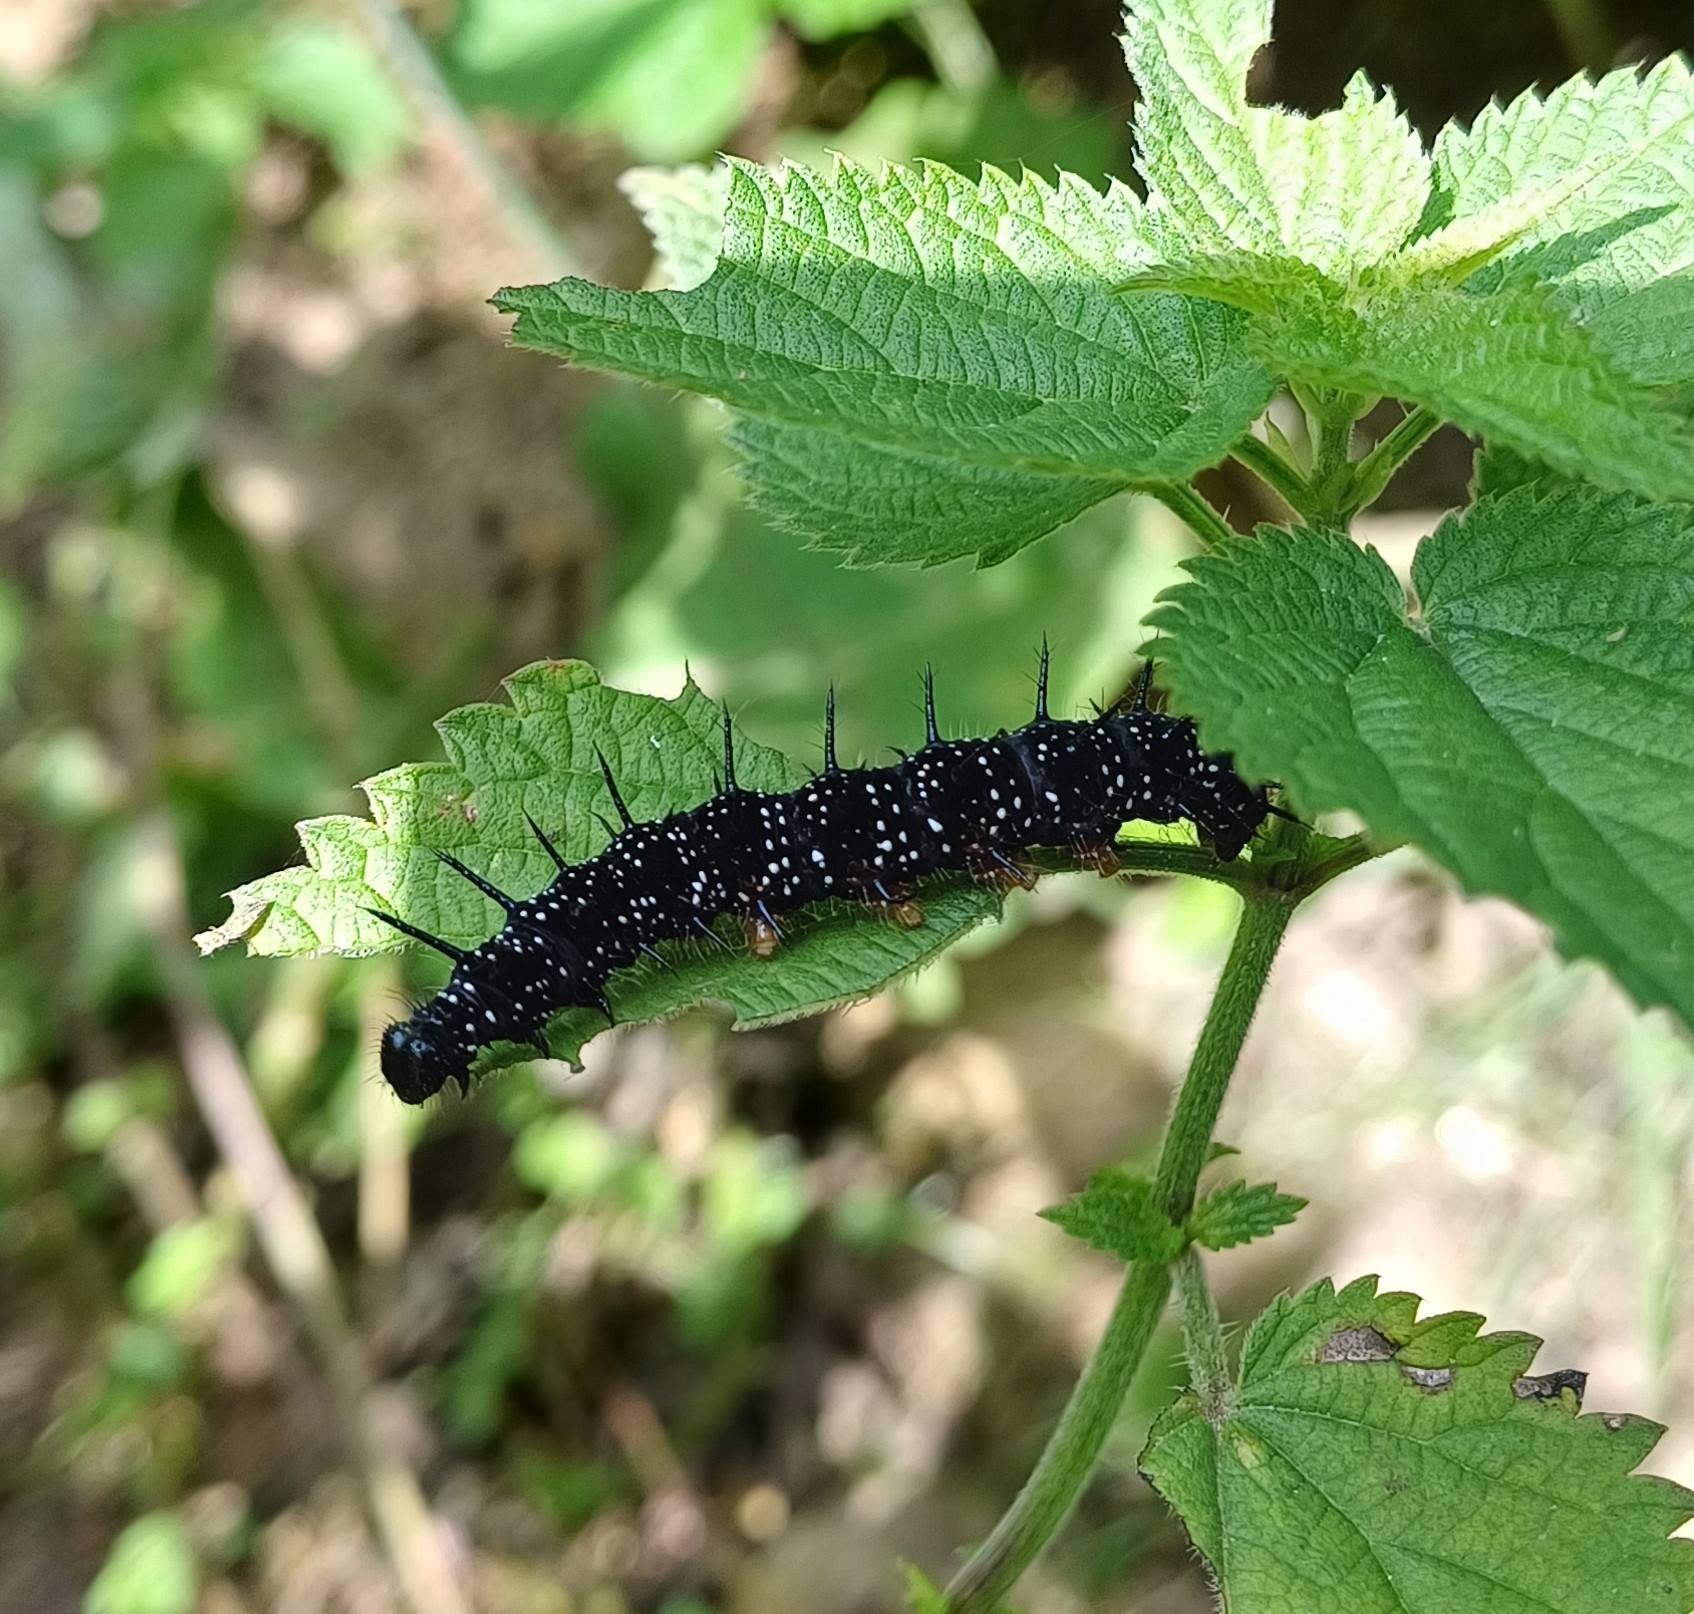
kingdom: Animalia
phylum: Arthropoda
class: Insecta
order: Lepidoptera
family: Nymphalidae
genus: Aglais
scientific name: Aglais io
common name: Peacock
